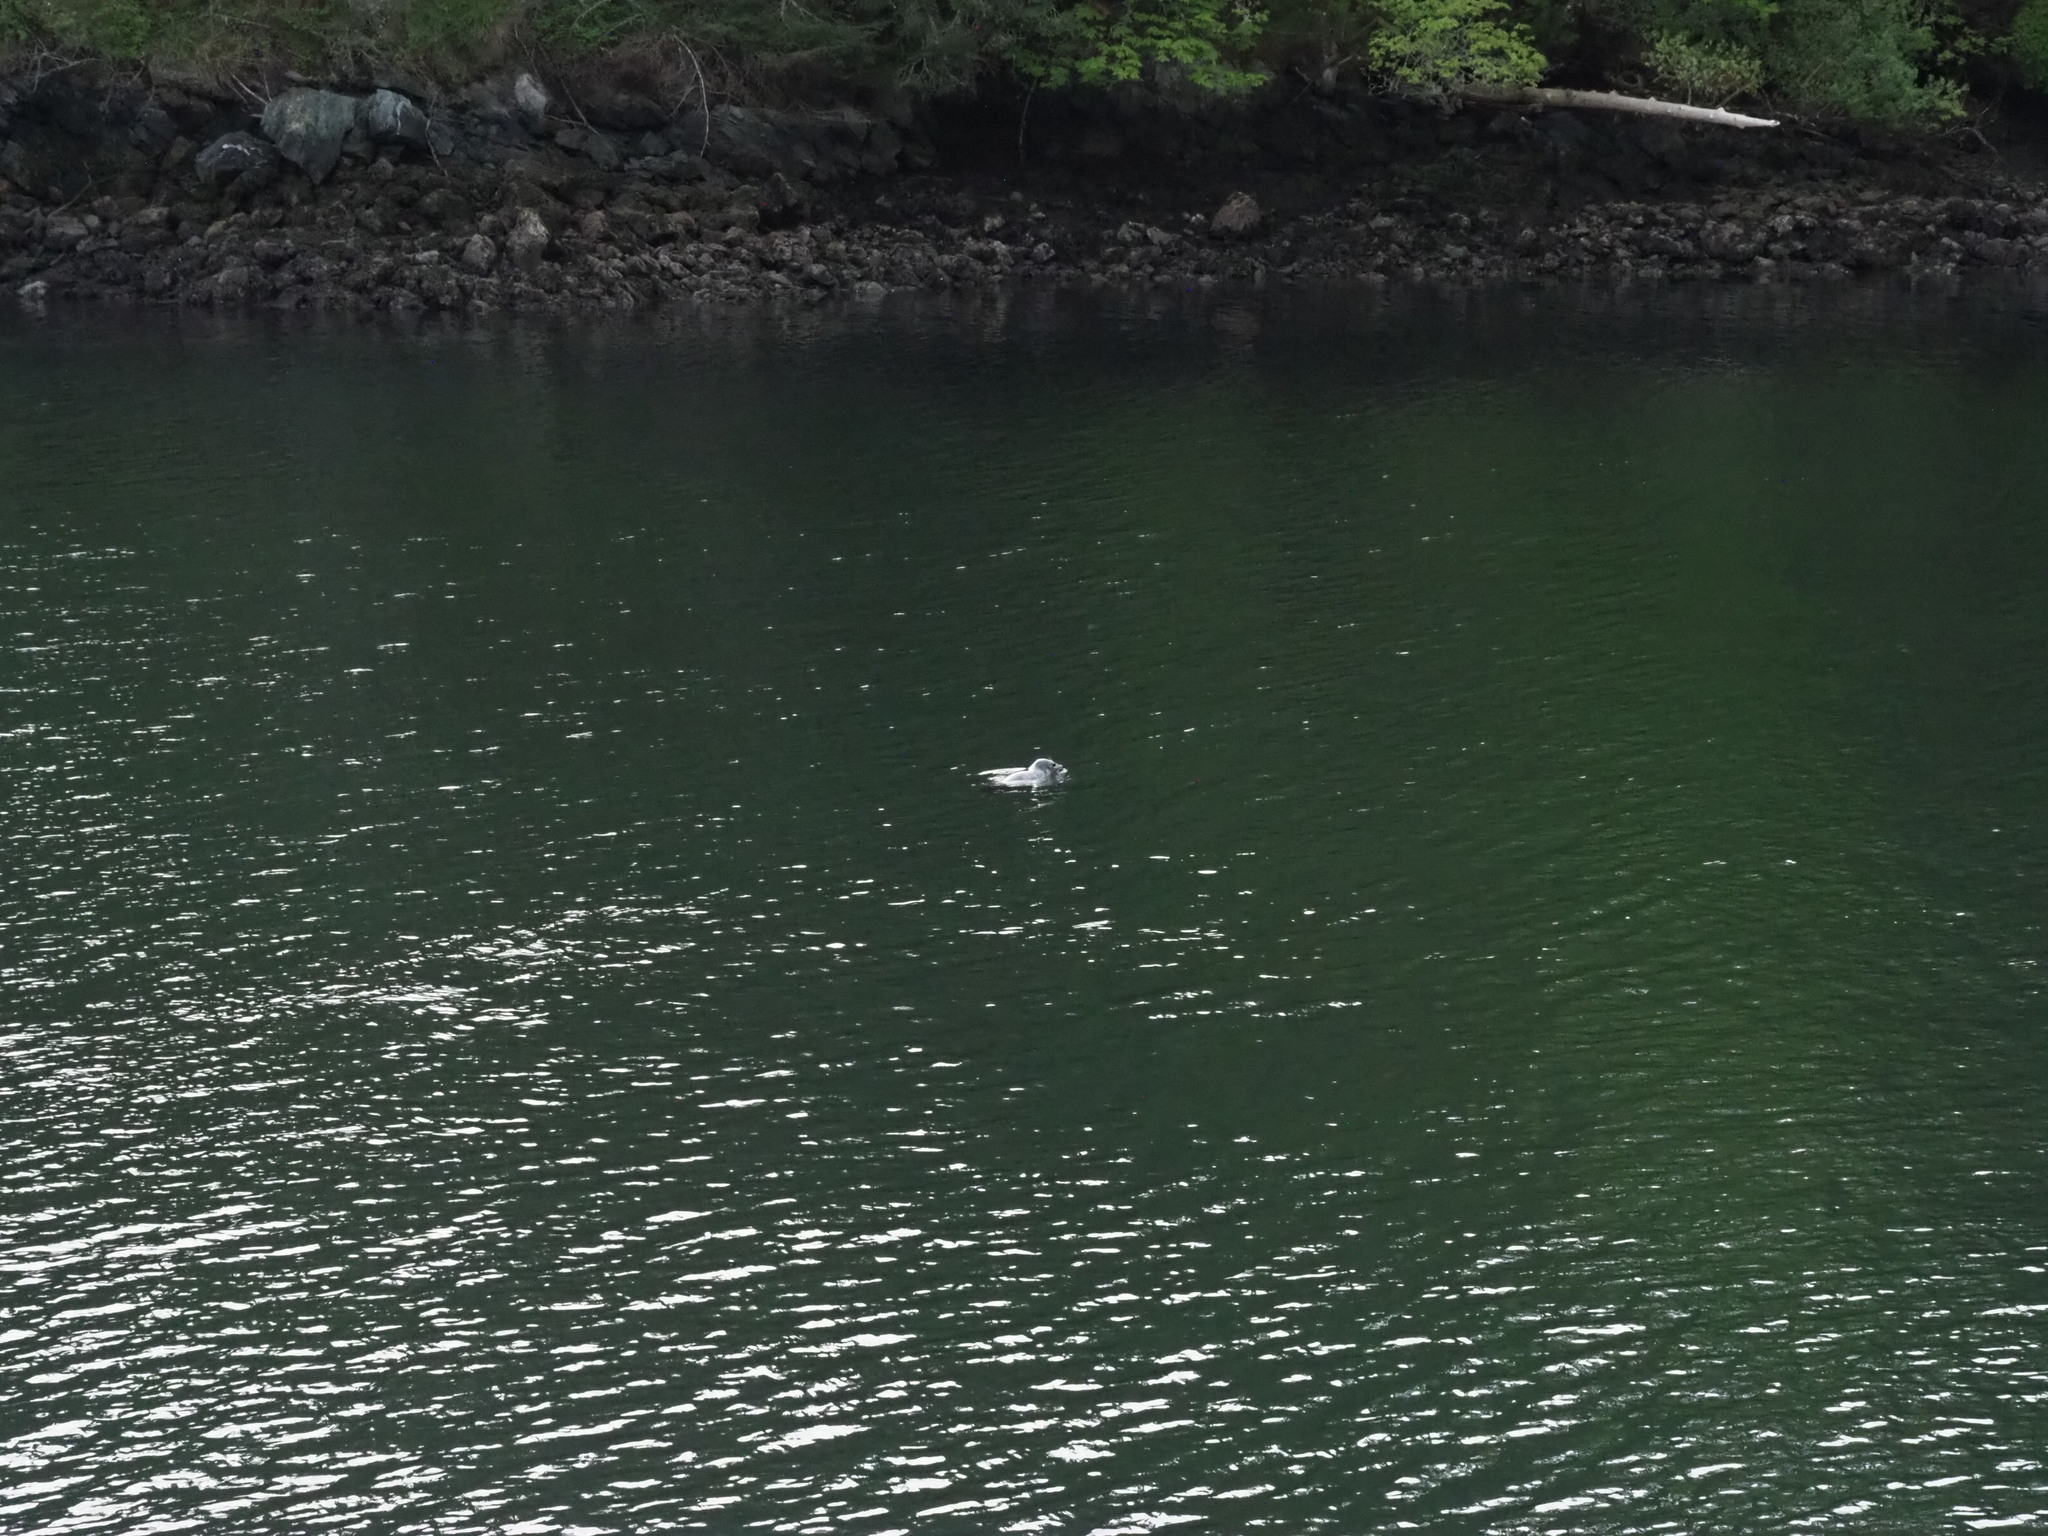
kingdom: Animalia
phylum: Chordata
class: Mammalia
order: Carnivora
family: Phocidae
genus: Phoca
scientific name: Phoca vitulina
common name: Harbor seal
